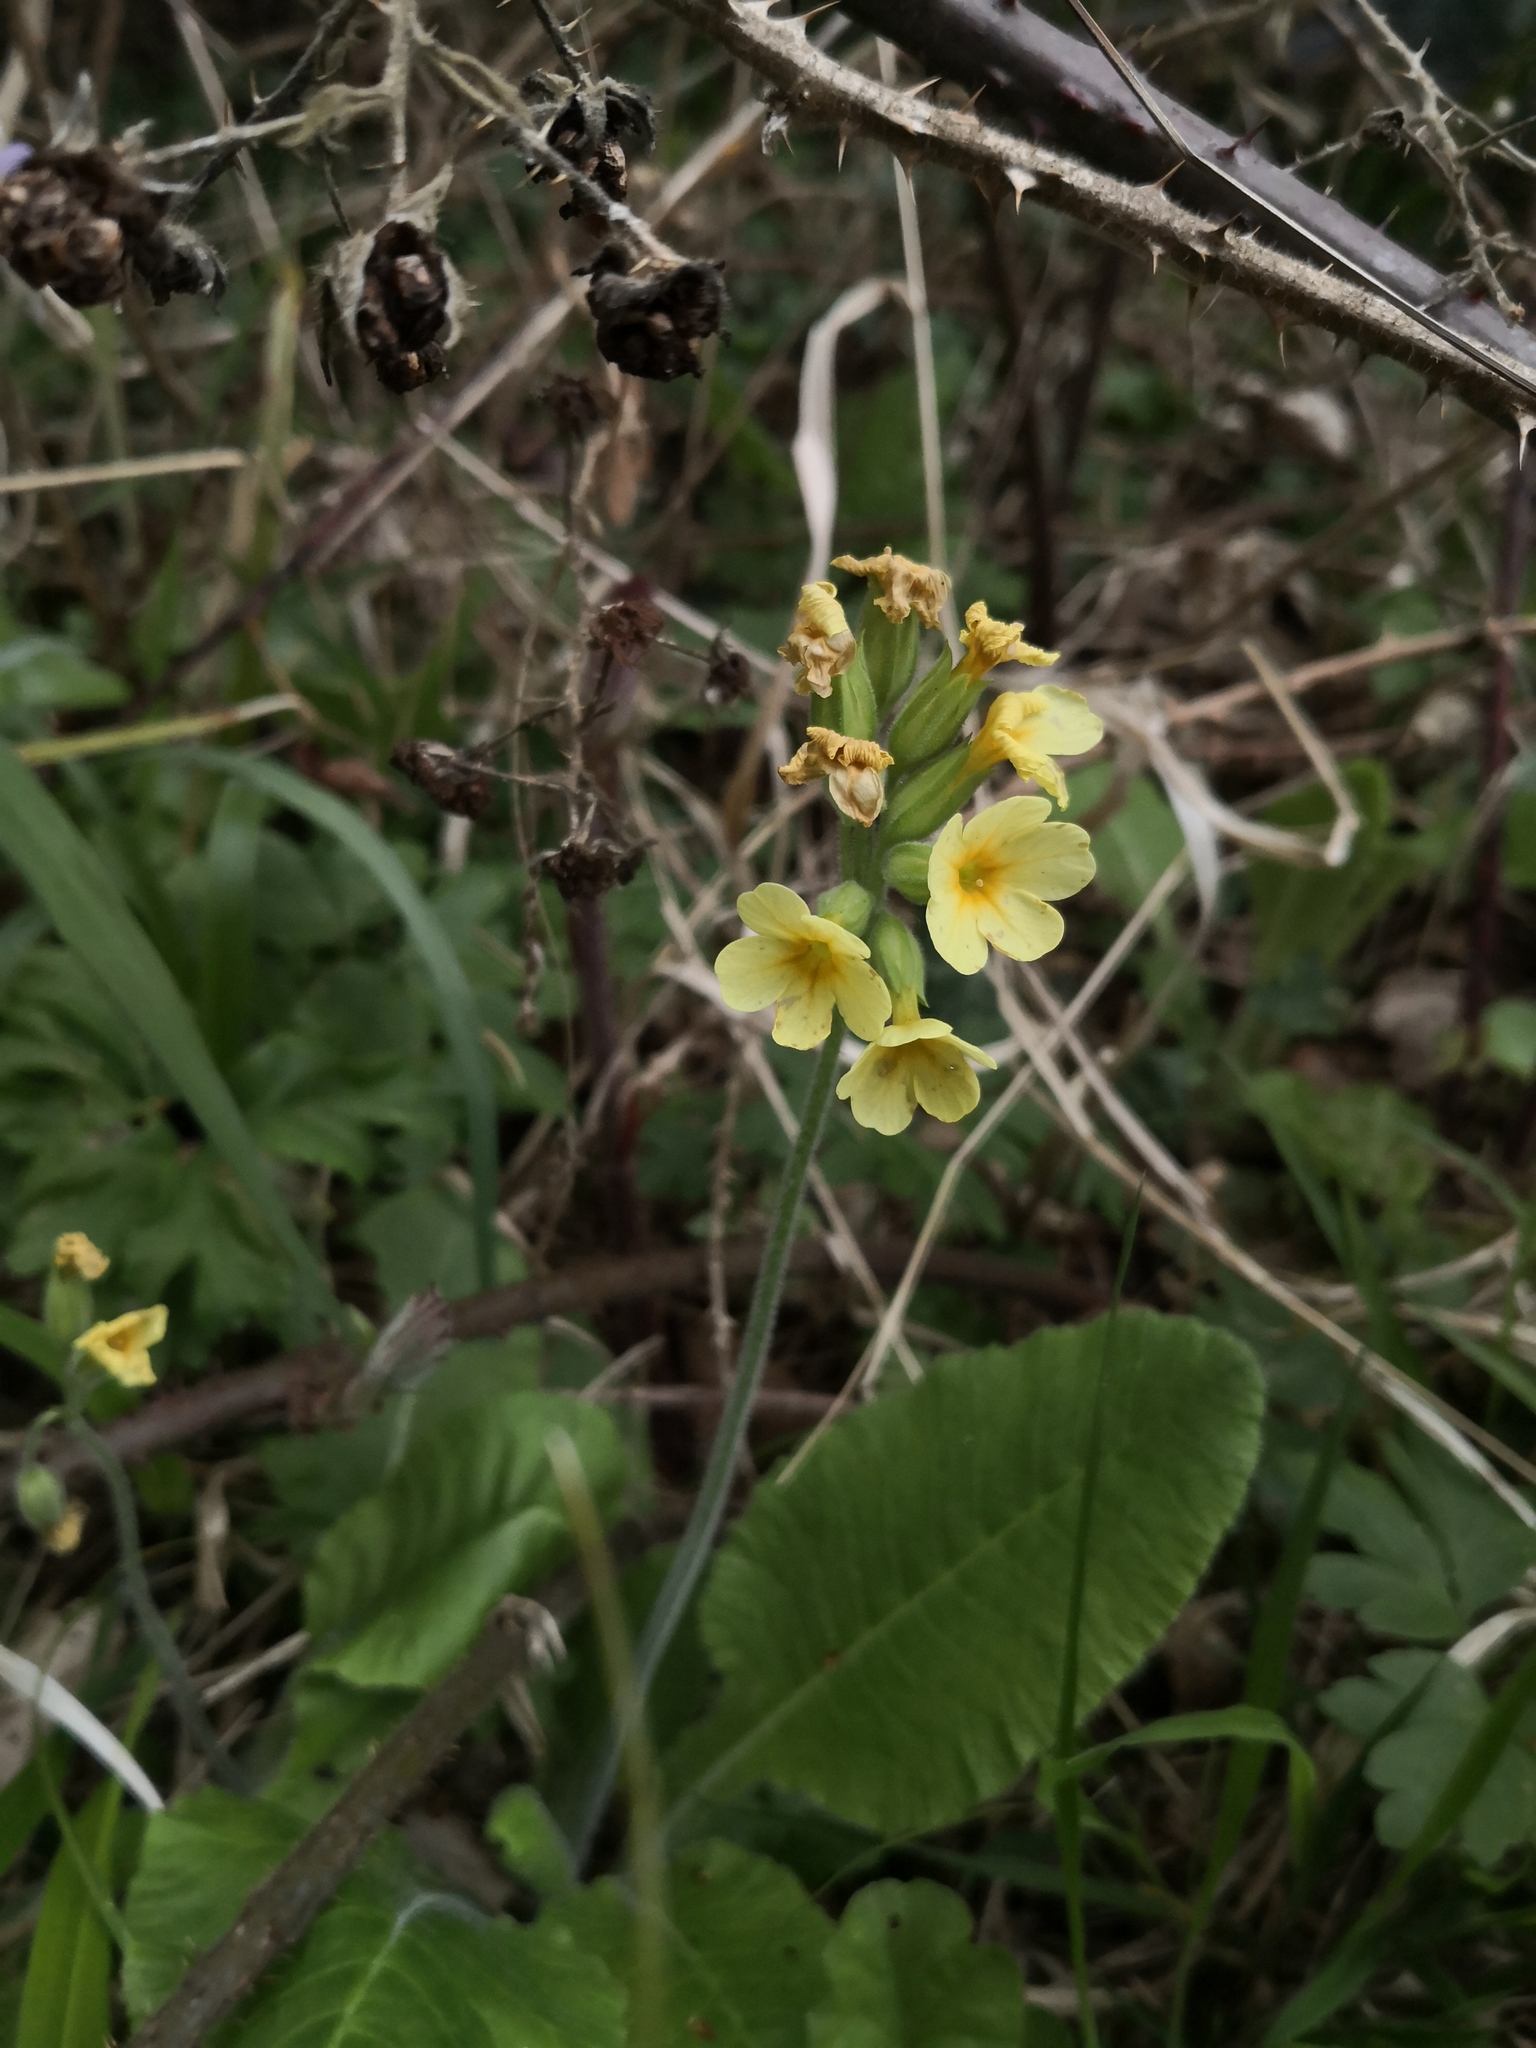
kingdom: Plantae
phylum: Tracheophyta
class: Magnoliopsida
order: Ericales
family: Primulaceae
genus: Primula
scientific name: Primula elatior
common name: Oxlip
